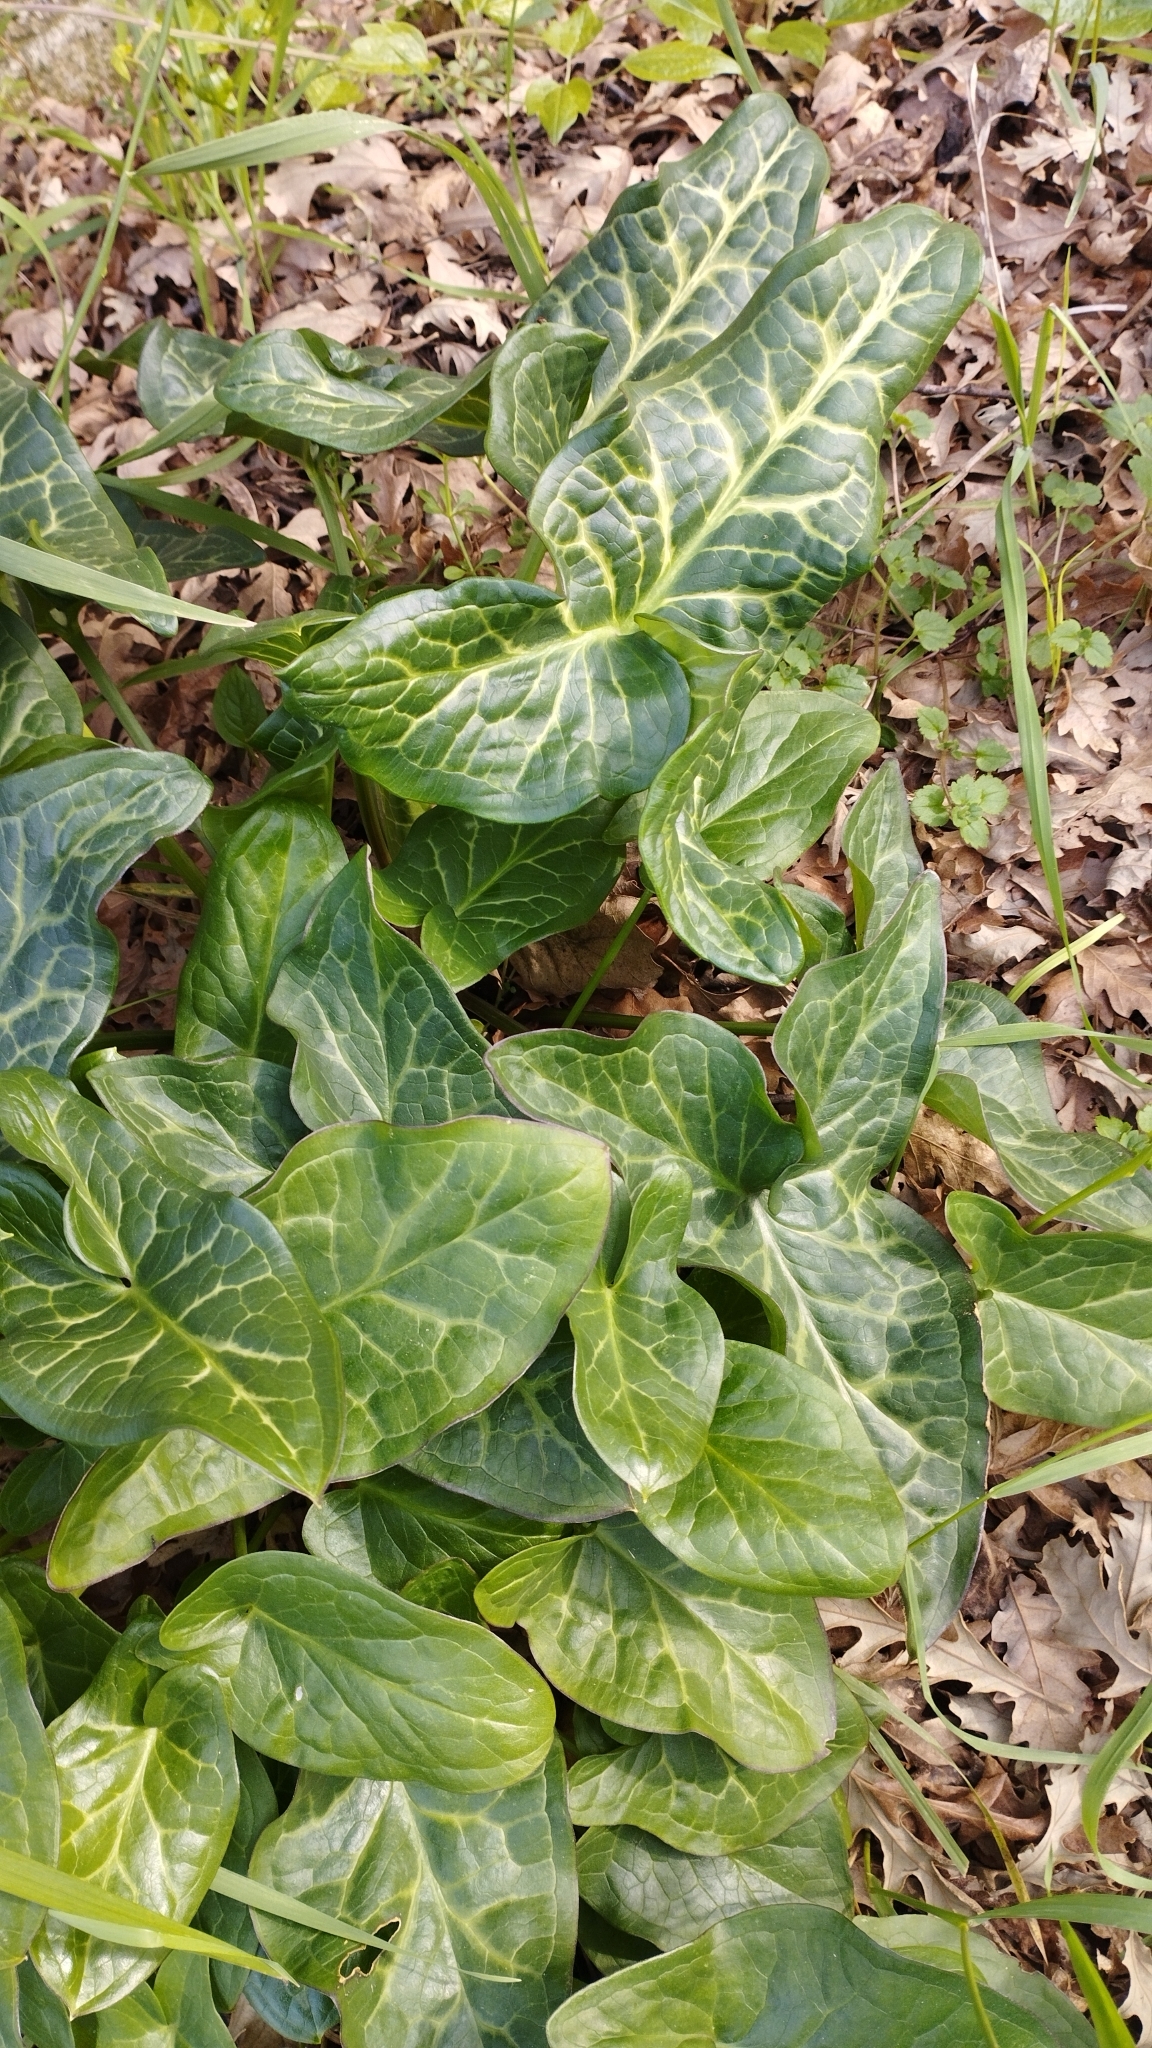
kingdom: Plantae
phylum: Tracheophyta
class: Liliopsida
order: Alismatales
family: Araceae
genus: Arum
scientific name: Arum italicum
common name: Italian lords-and-ladies
